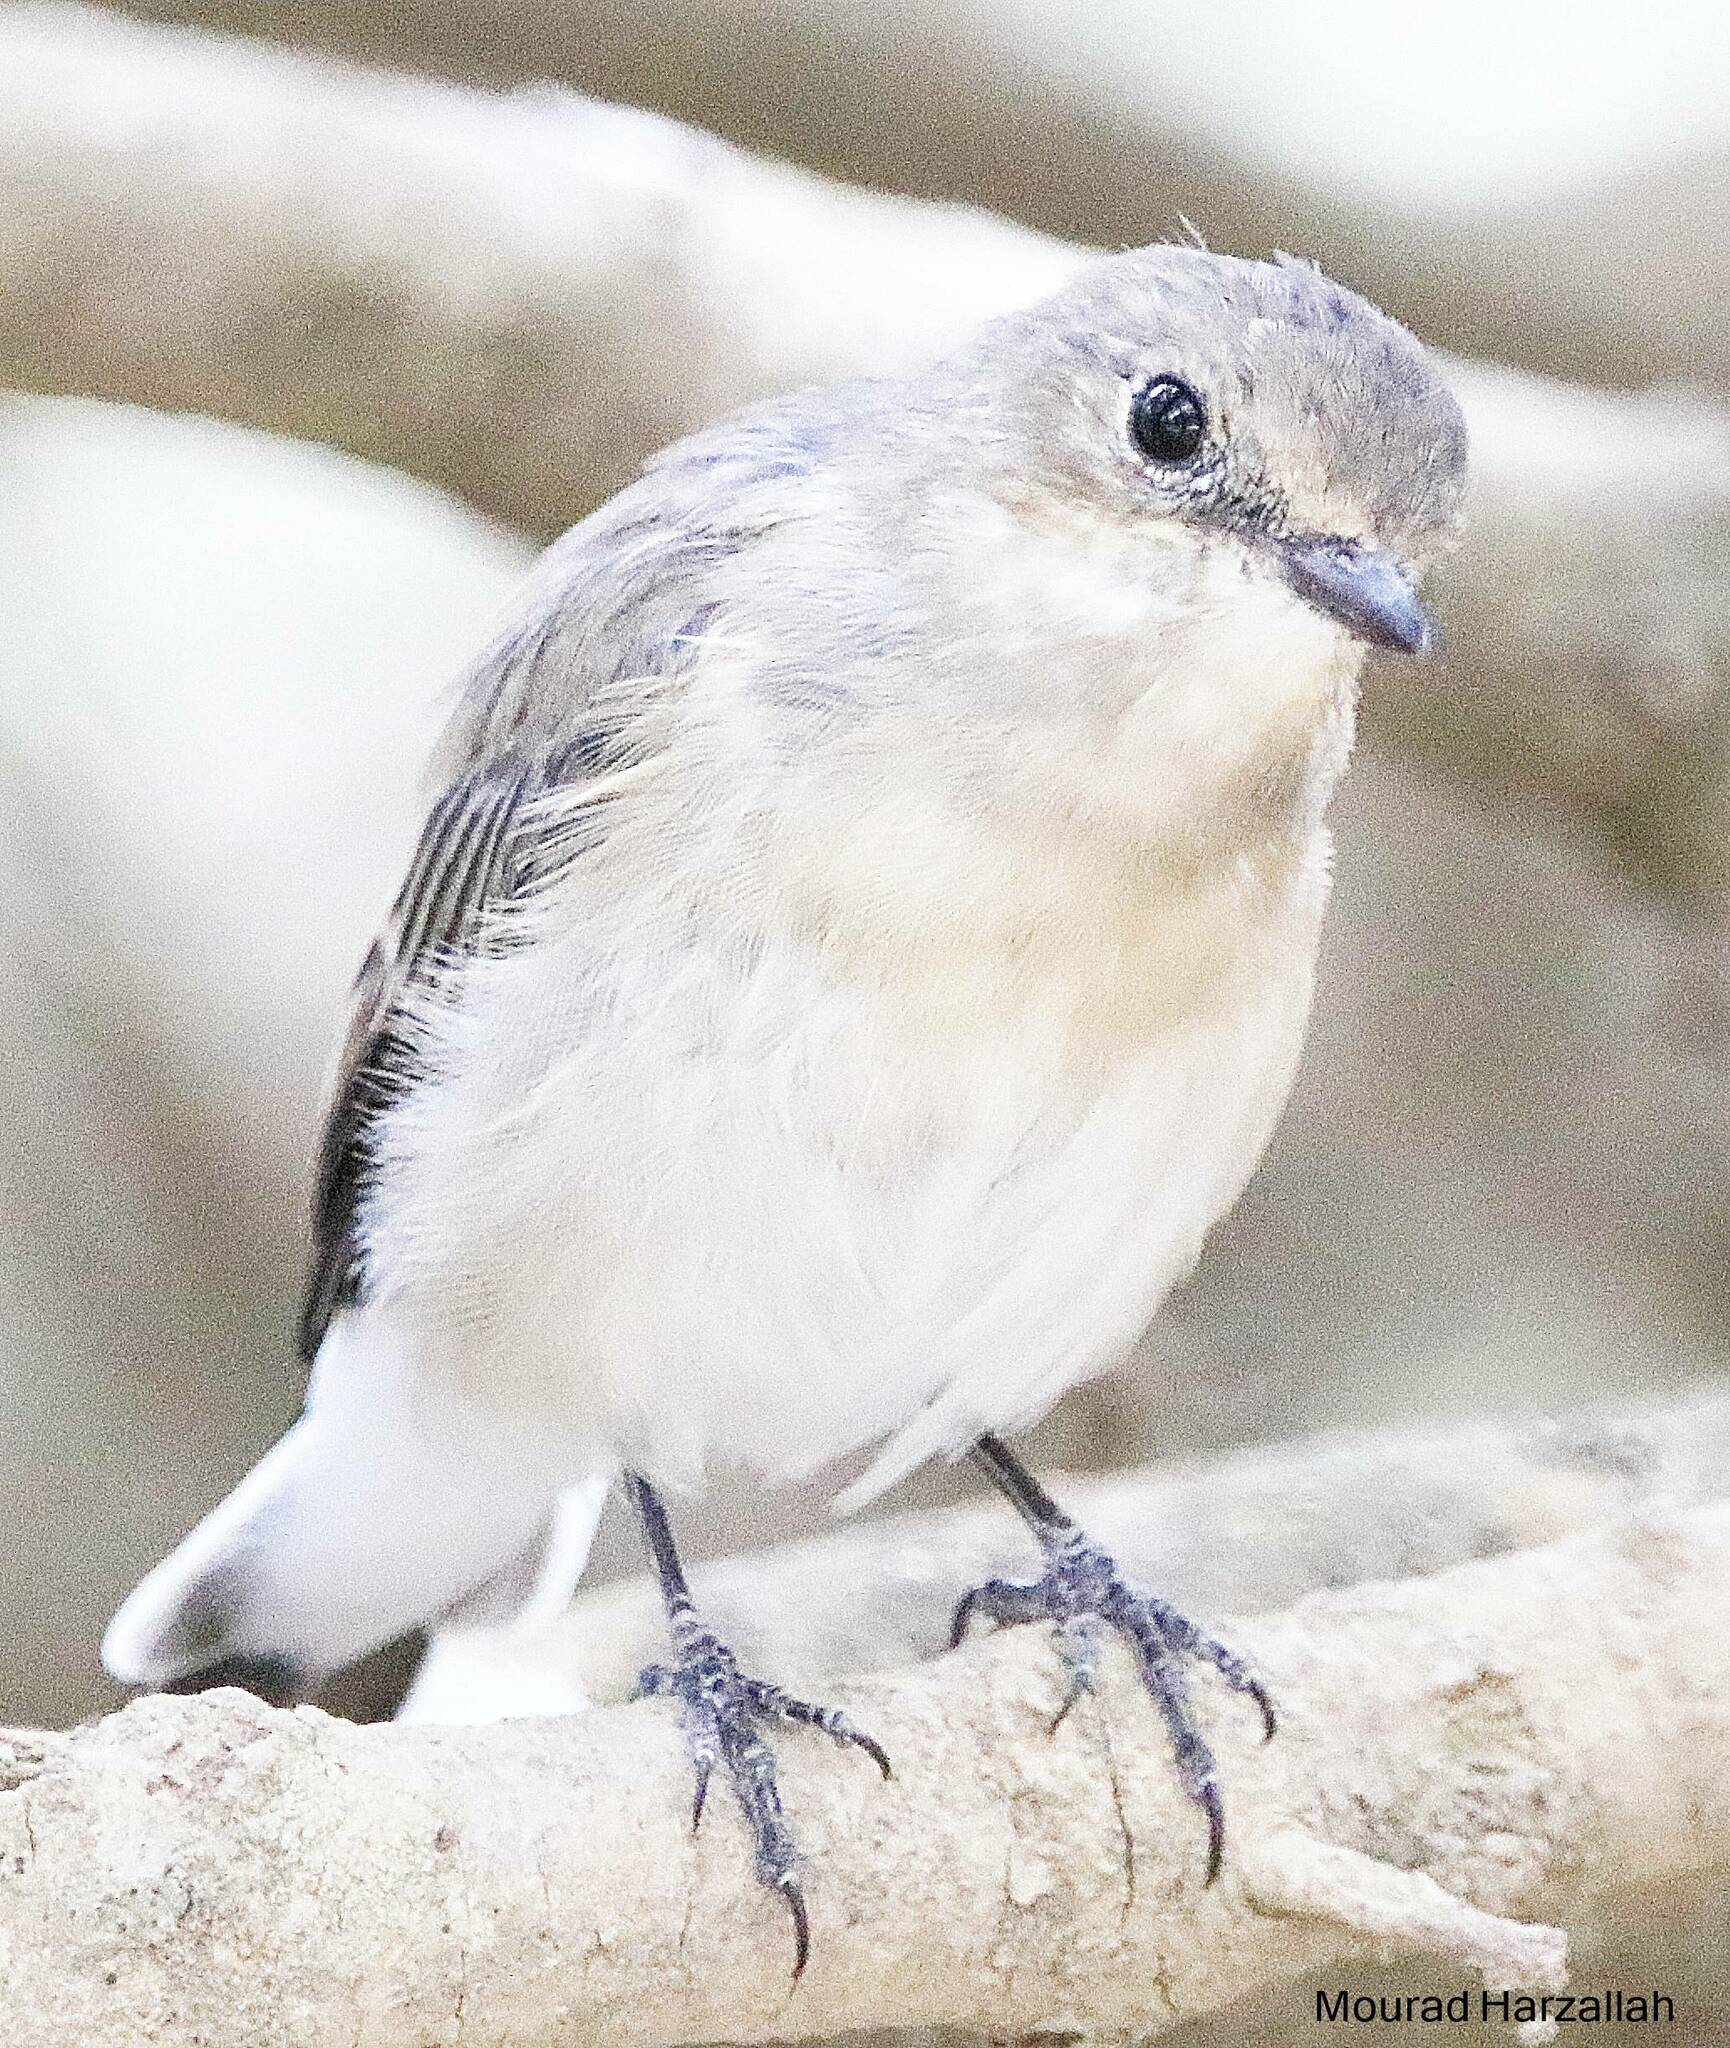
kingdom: Animalia
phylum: Chordata
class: Aves
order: Passeriformes
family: Muscicapidae
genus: Ficedula
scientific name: Ficedula speculigera
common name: Atlas pied flycatcher
